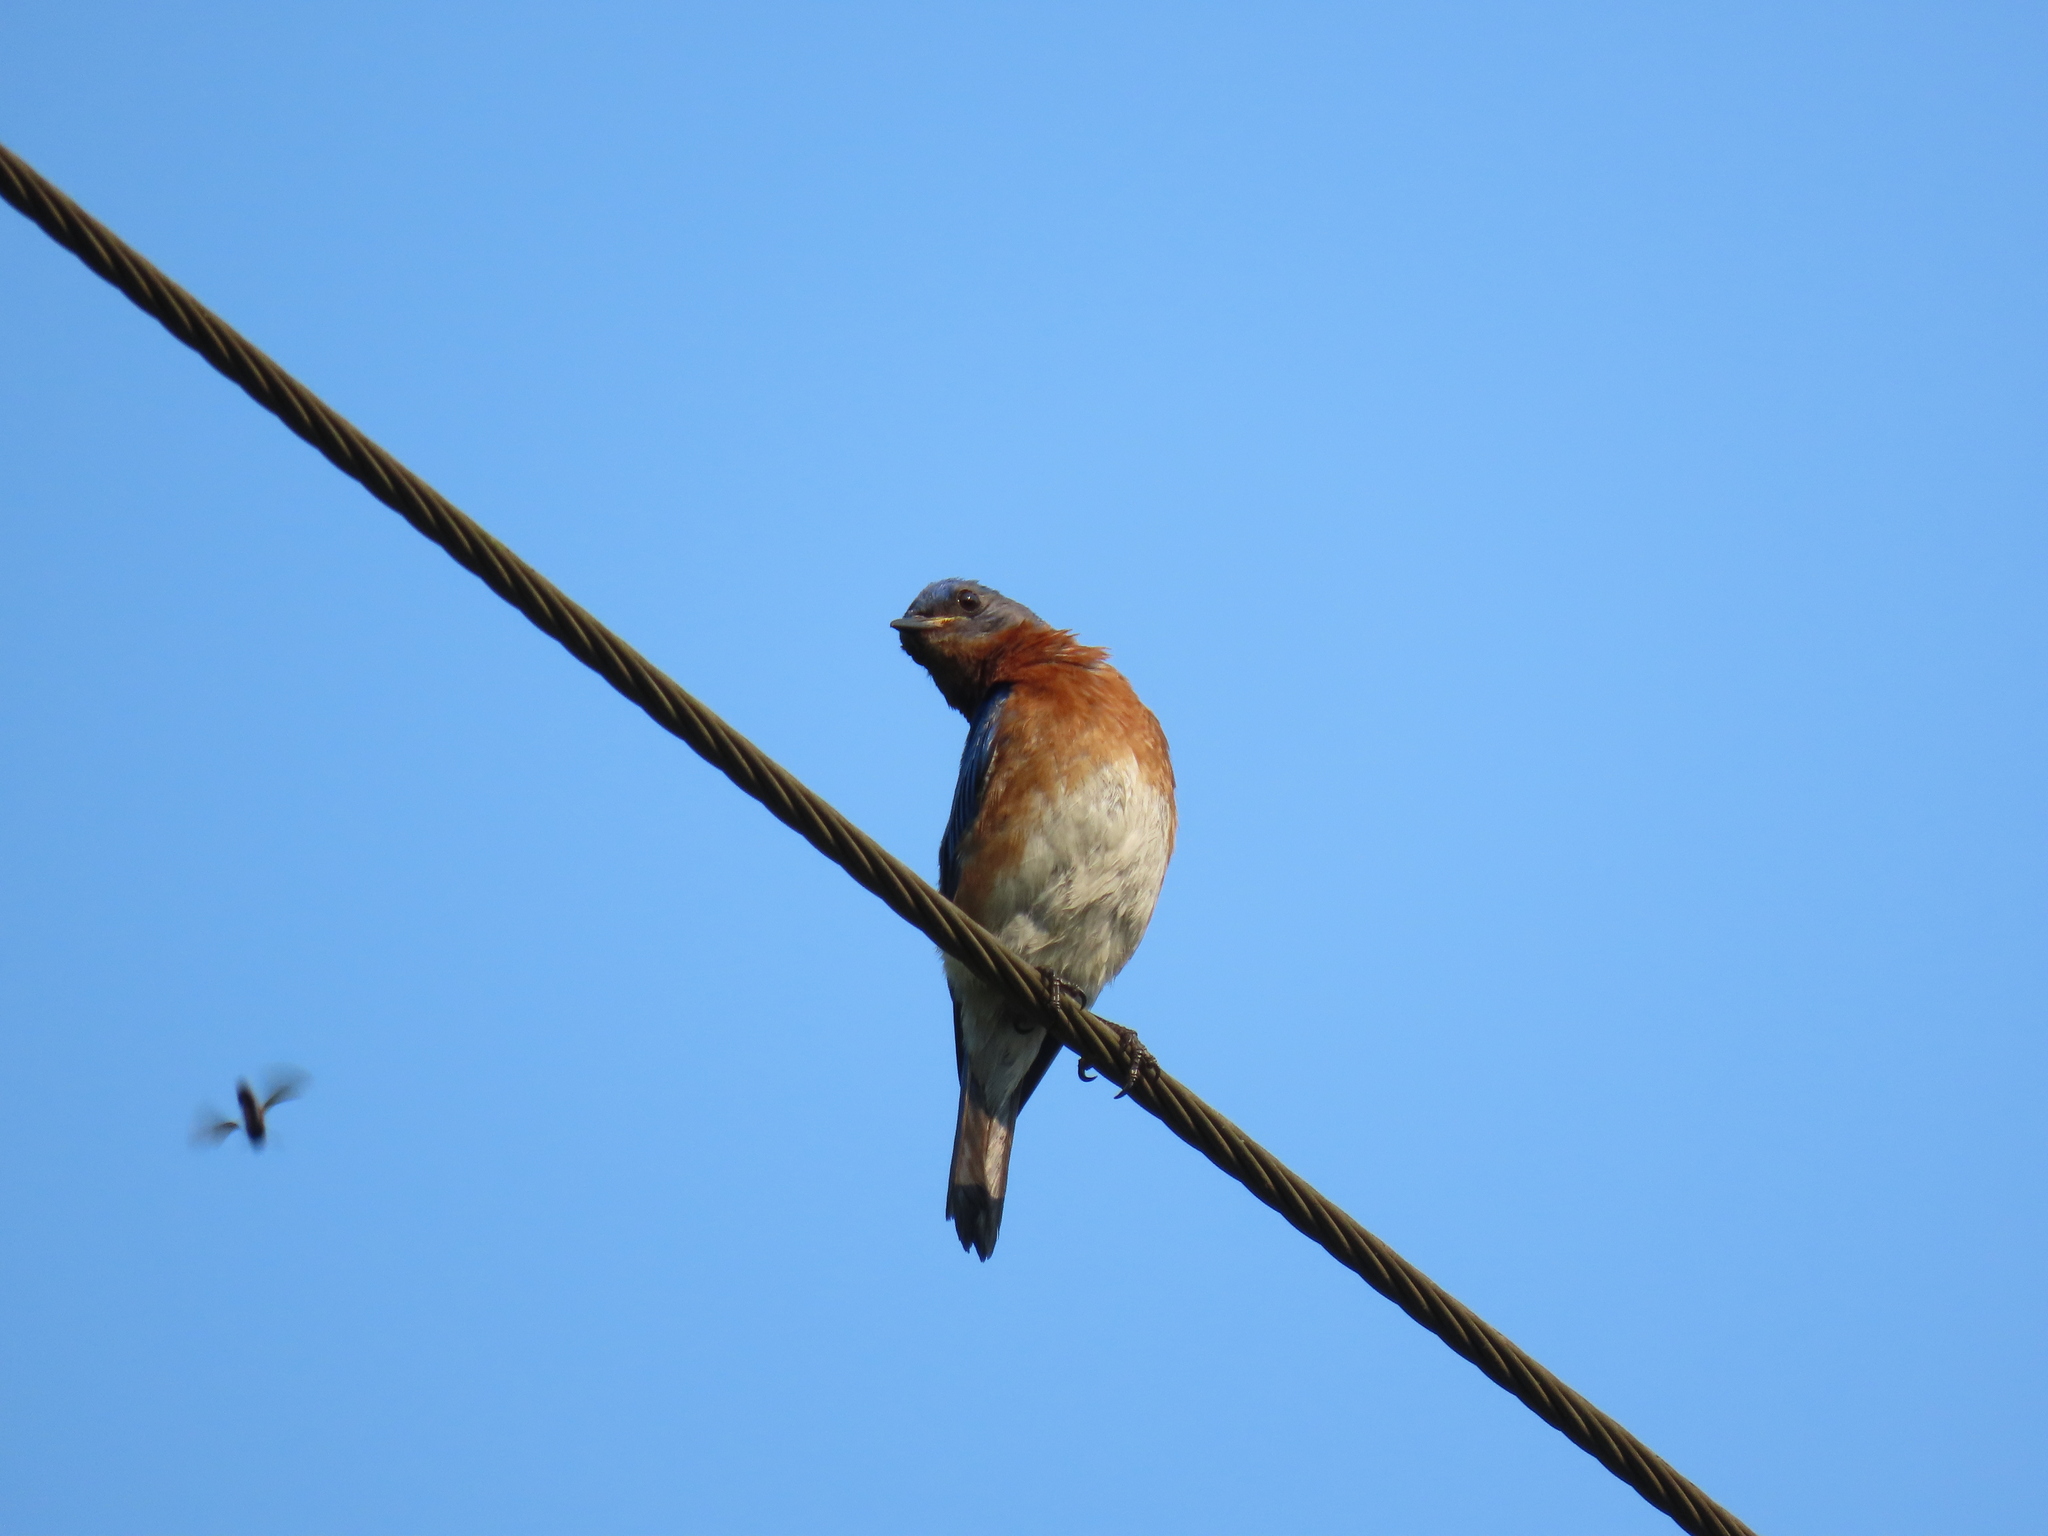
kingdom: Animalia
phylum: Chordata
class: Aves
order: Passeriformes
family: Turdidae
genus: Sialia
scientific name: Sialia sialis
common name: Eastern bluebird
